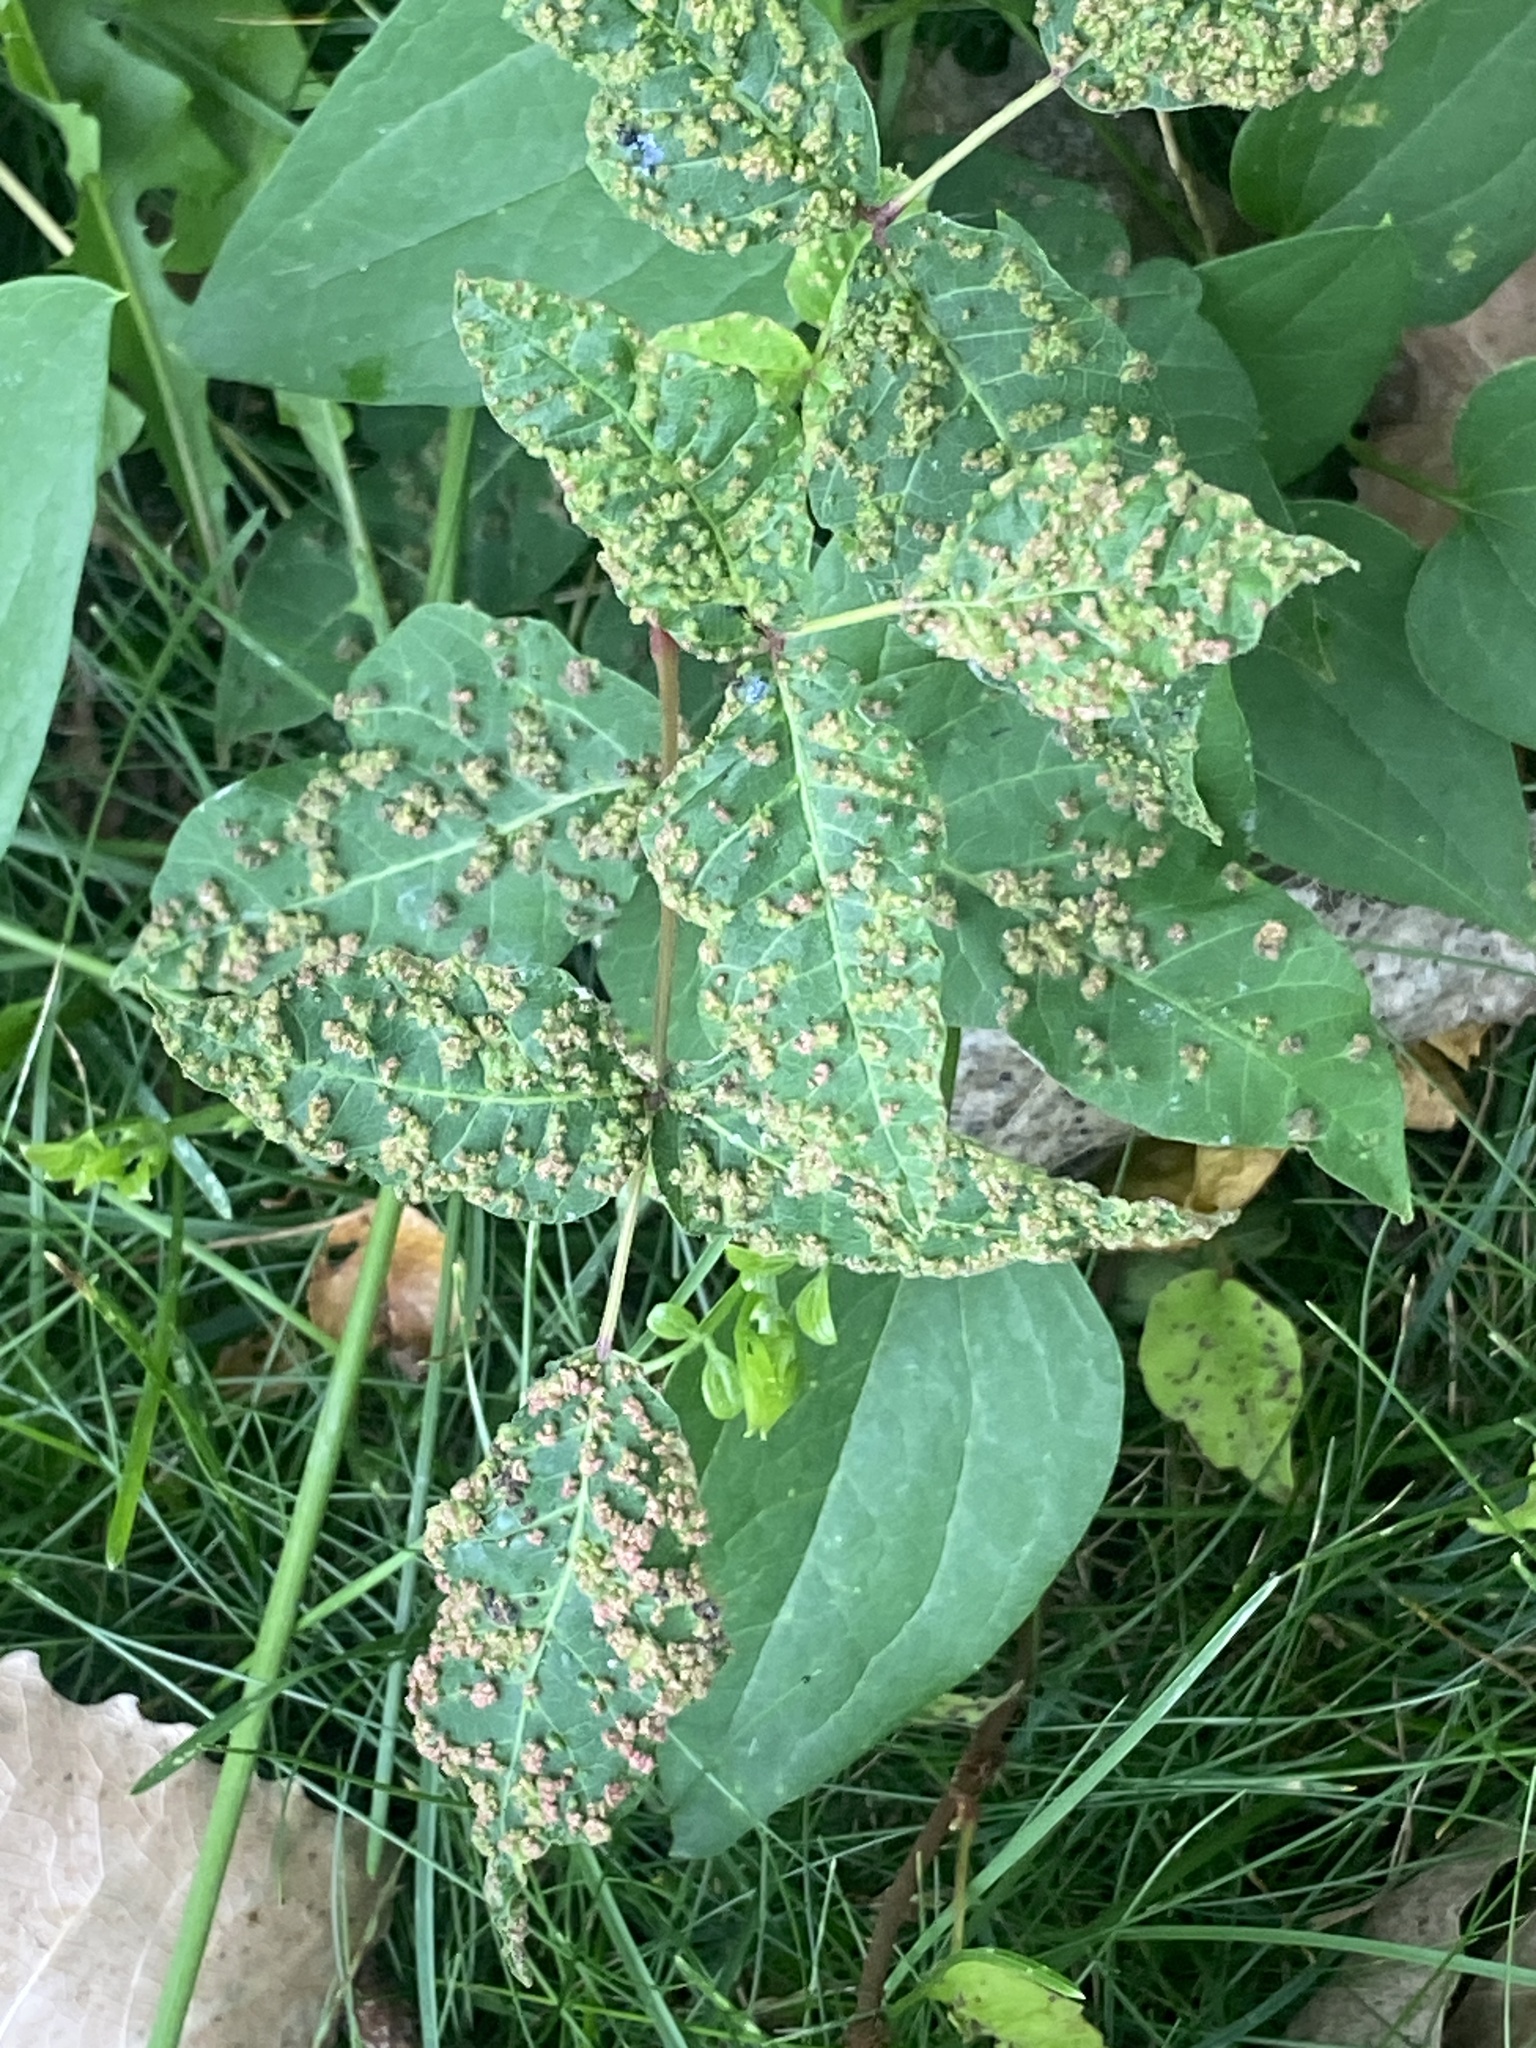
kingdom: Animalia
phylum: Arthropoda
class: Arachnida
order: Trombidiformes
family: Eriophyidae
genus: Aculops
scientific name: Aculops
